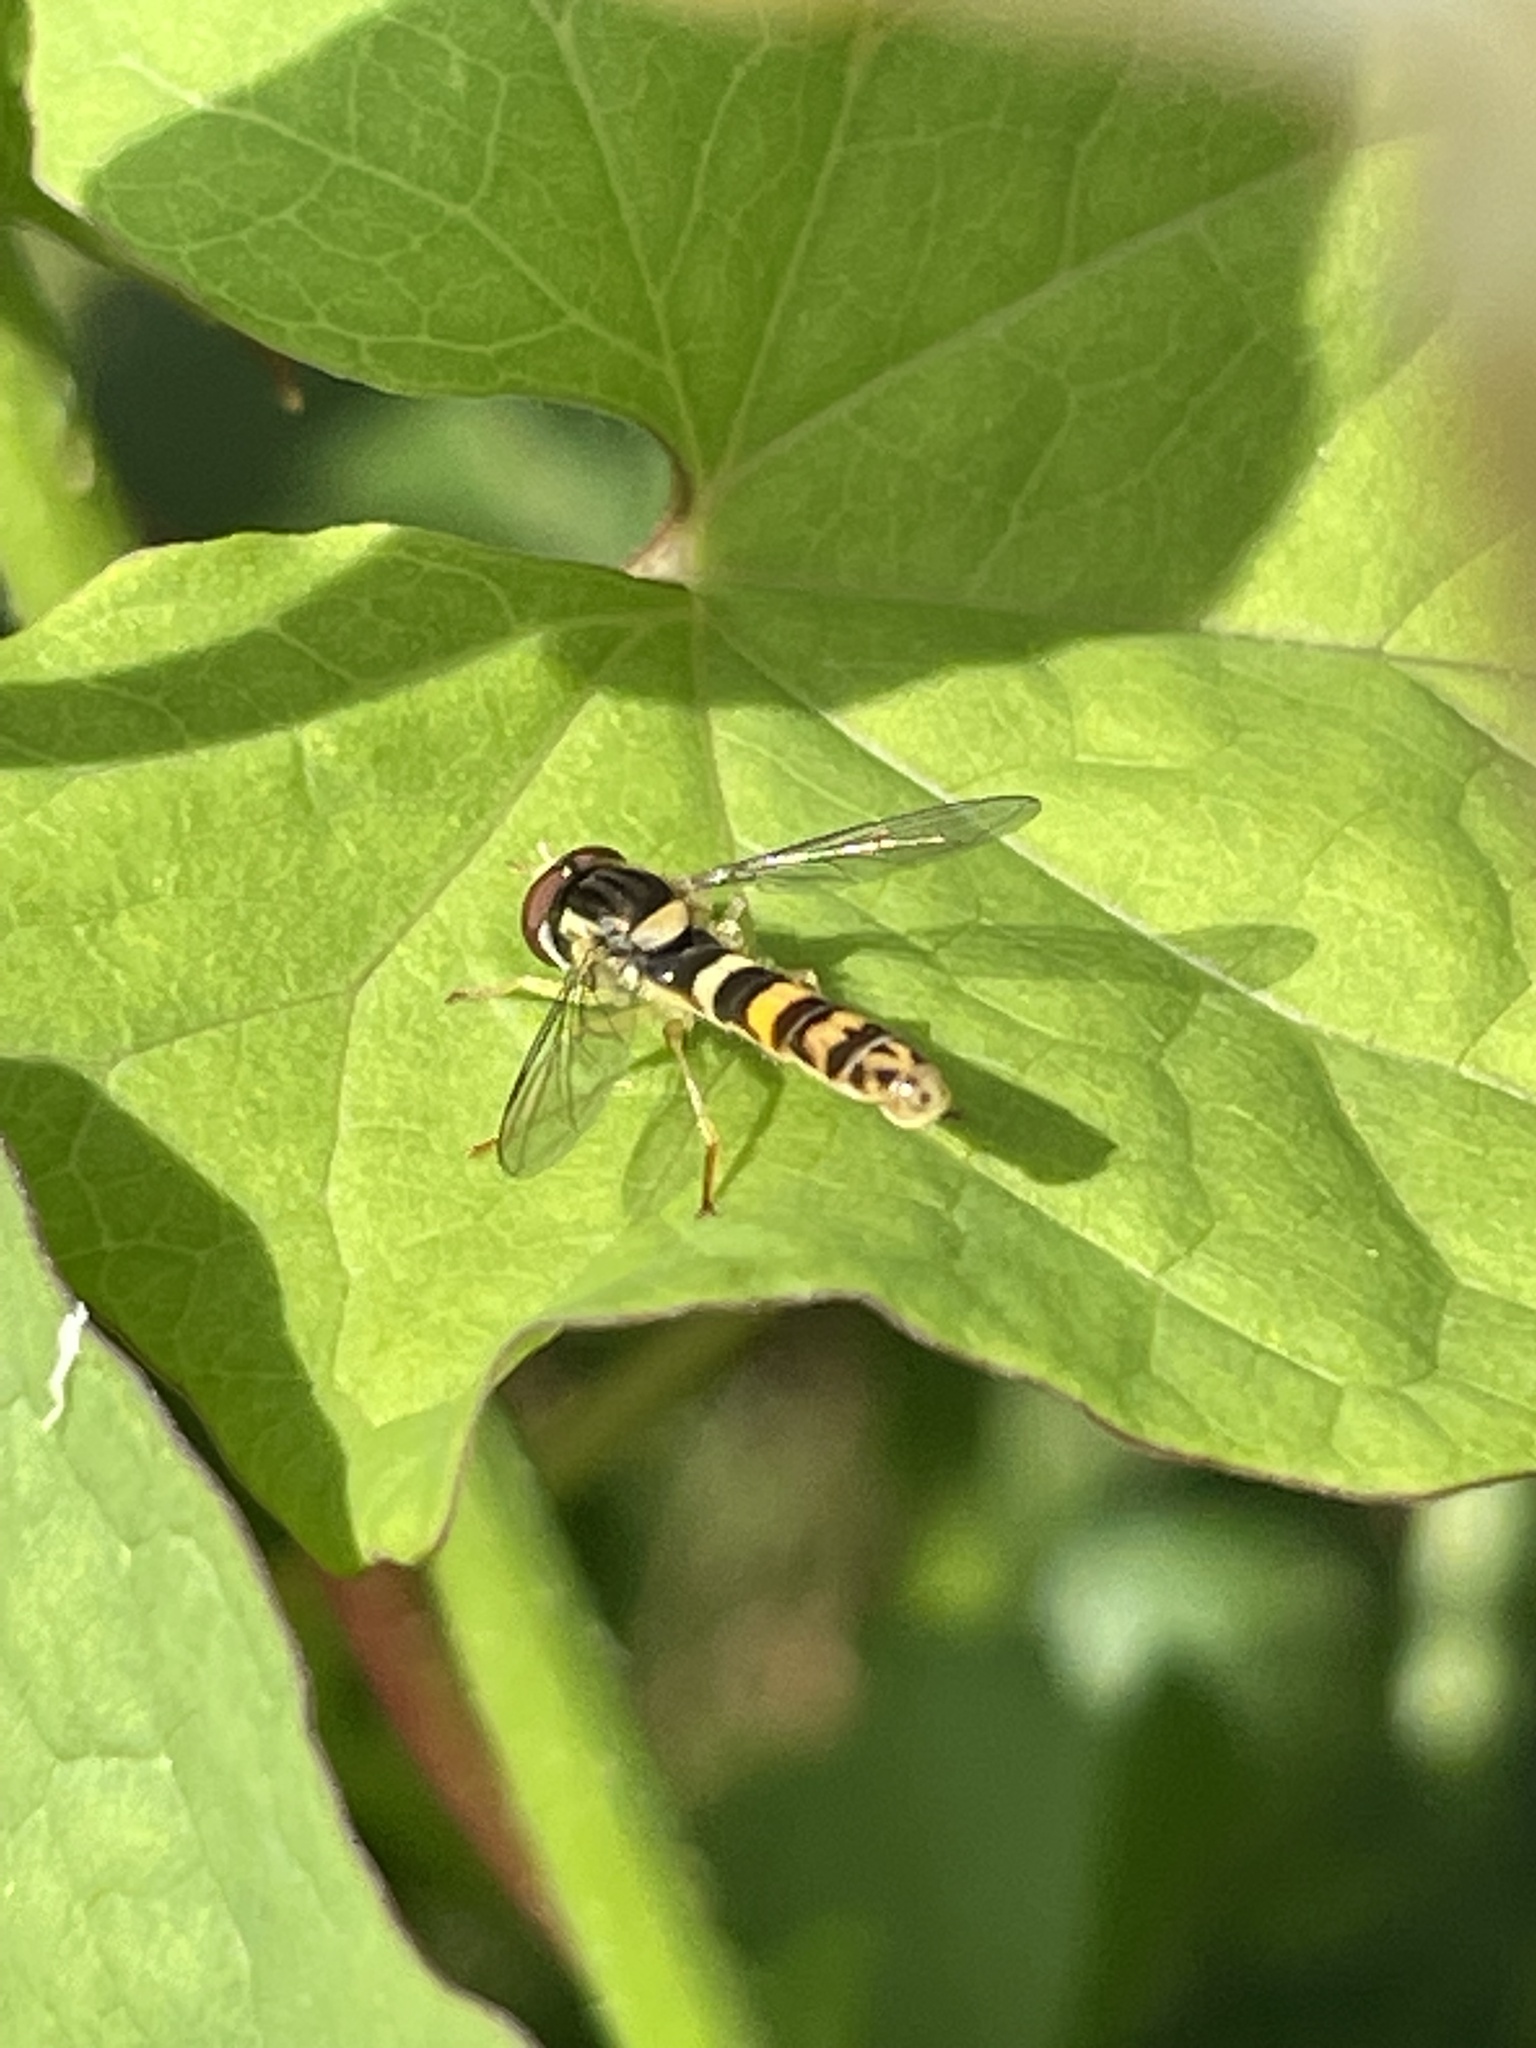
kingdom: Animalia
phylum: Arthropoda
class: Insecta
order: Diptera
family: Syrphidae
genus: Sphaerophoria
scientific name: Sphaerophoria scripta
